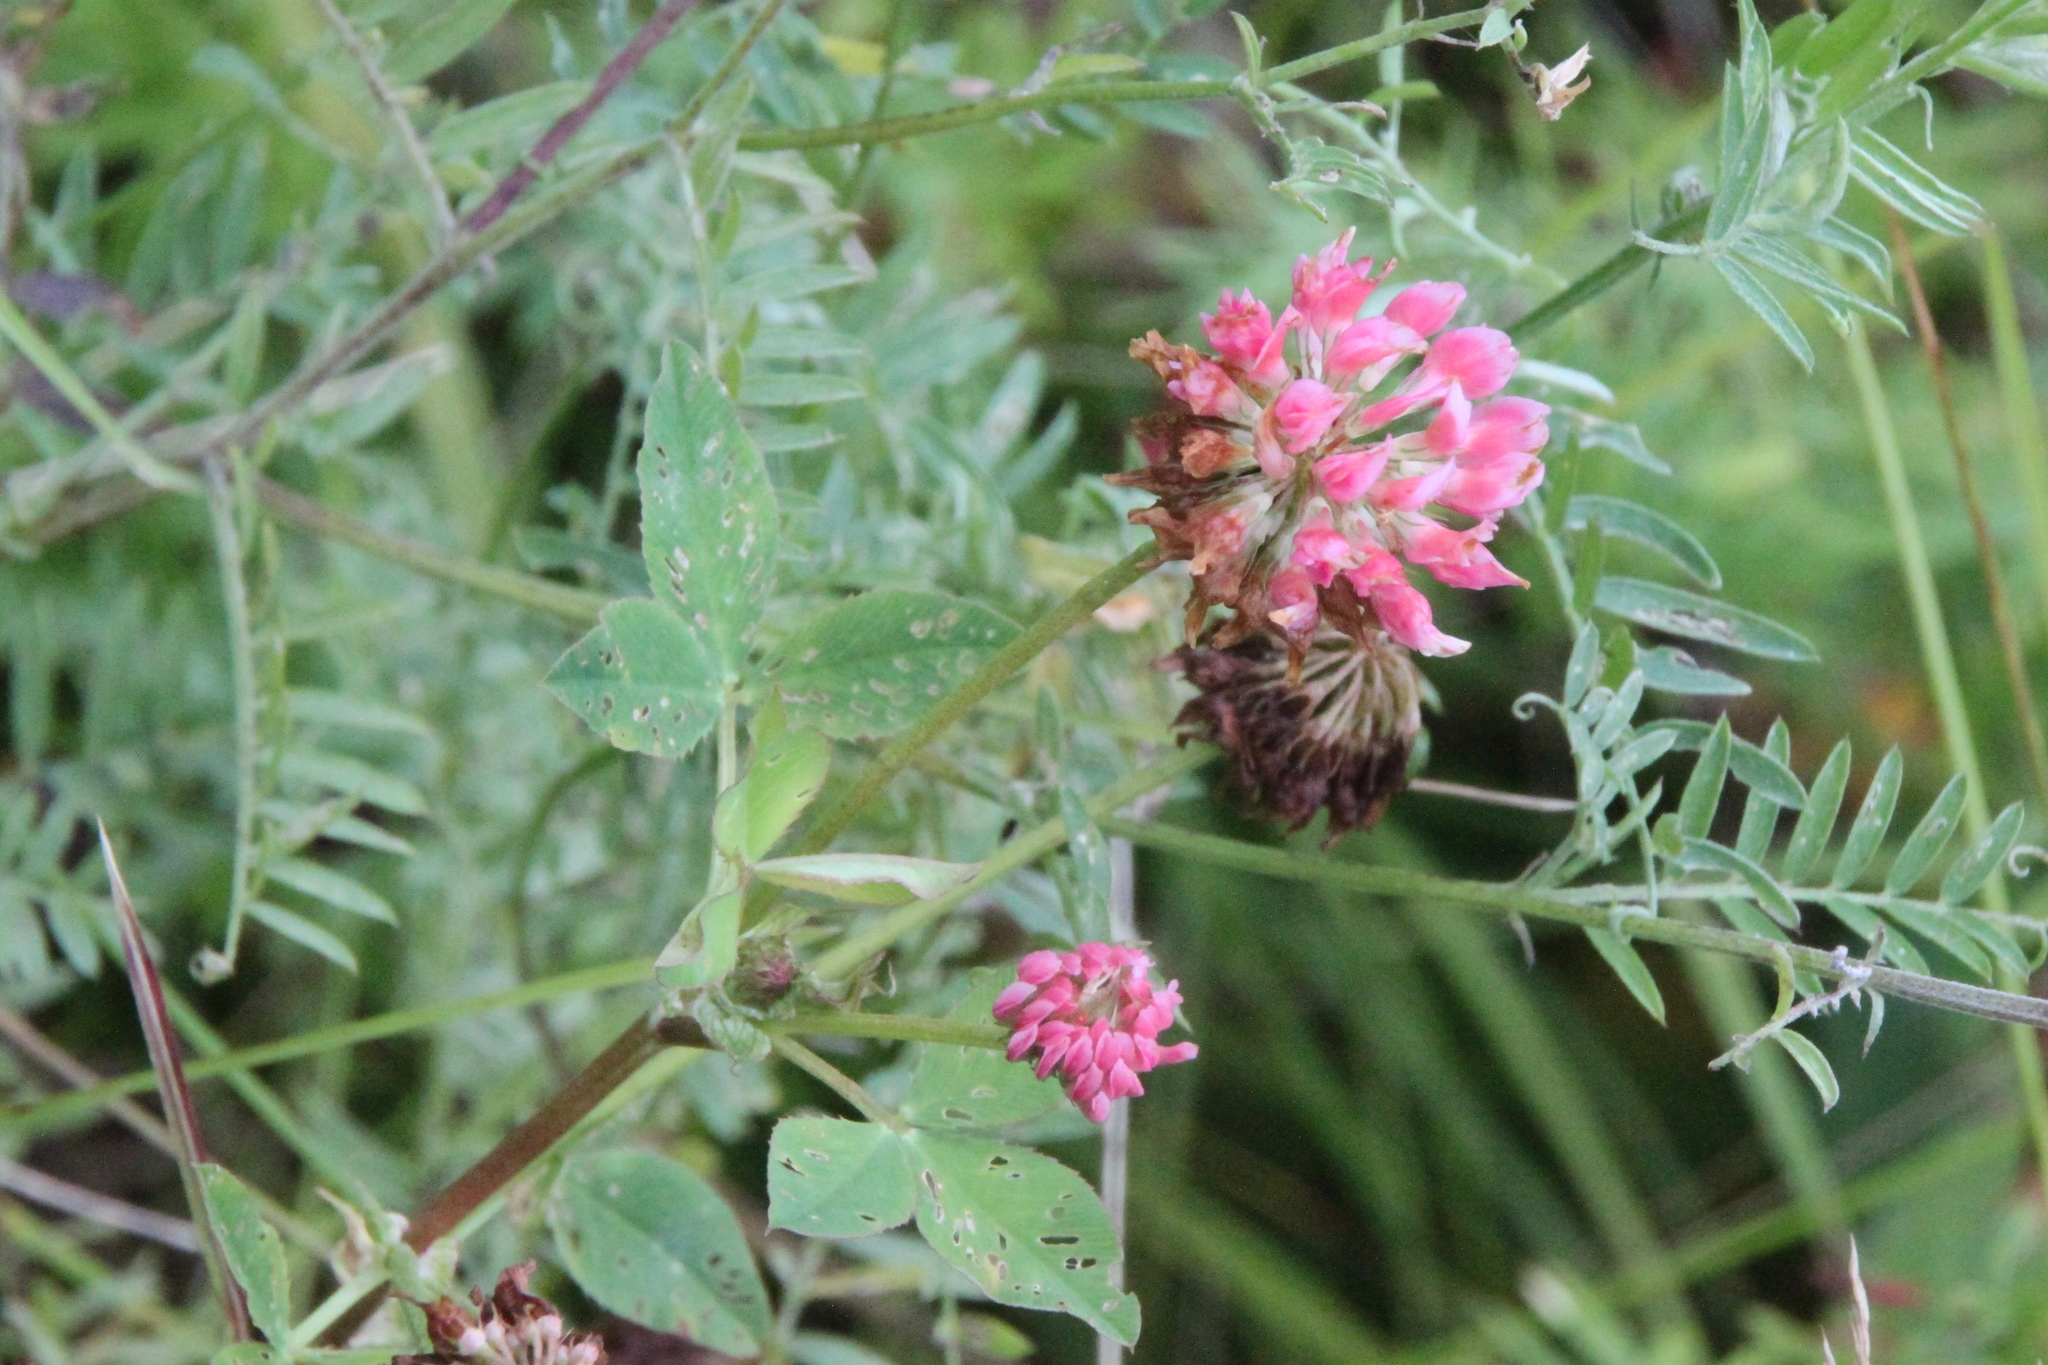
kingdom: Plantae
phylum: Tracheophyta
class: Magnoliopsida
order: Fabales
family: Fabaceae
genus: Trifolium
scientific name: Trifolium hybridum
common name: Alsike clover
